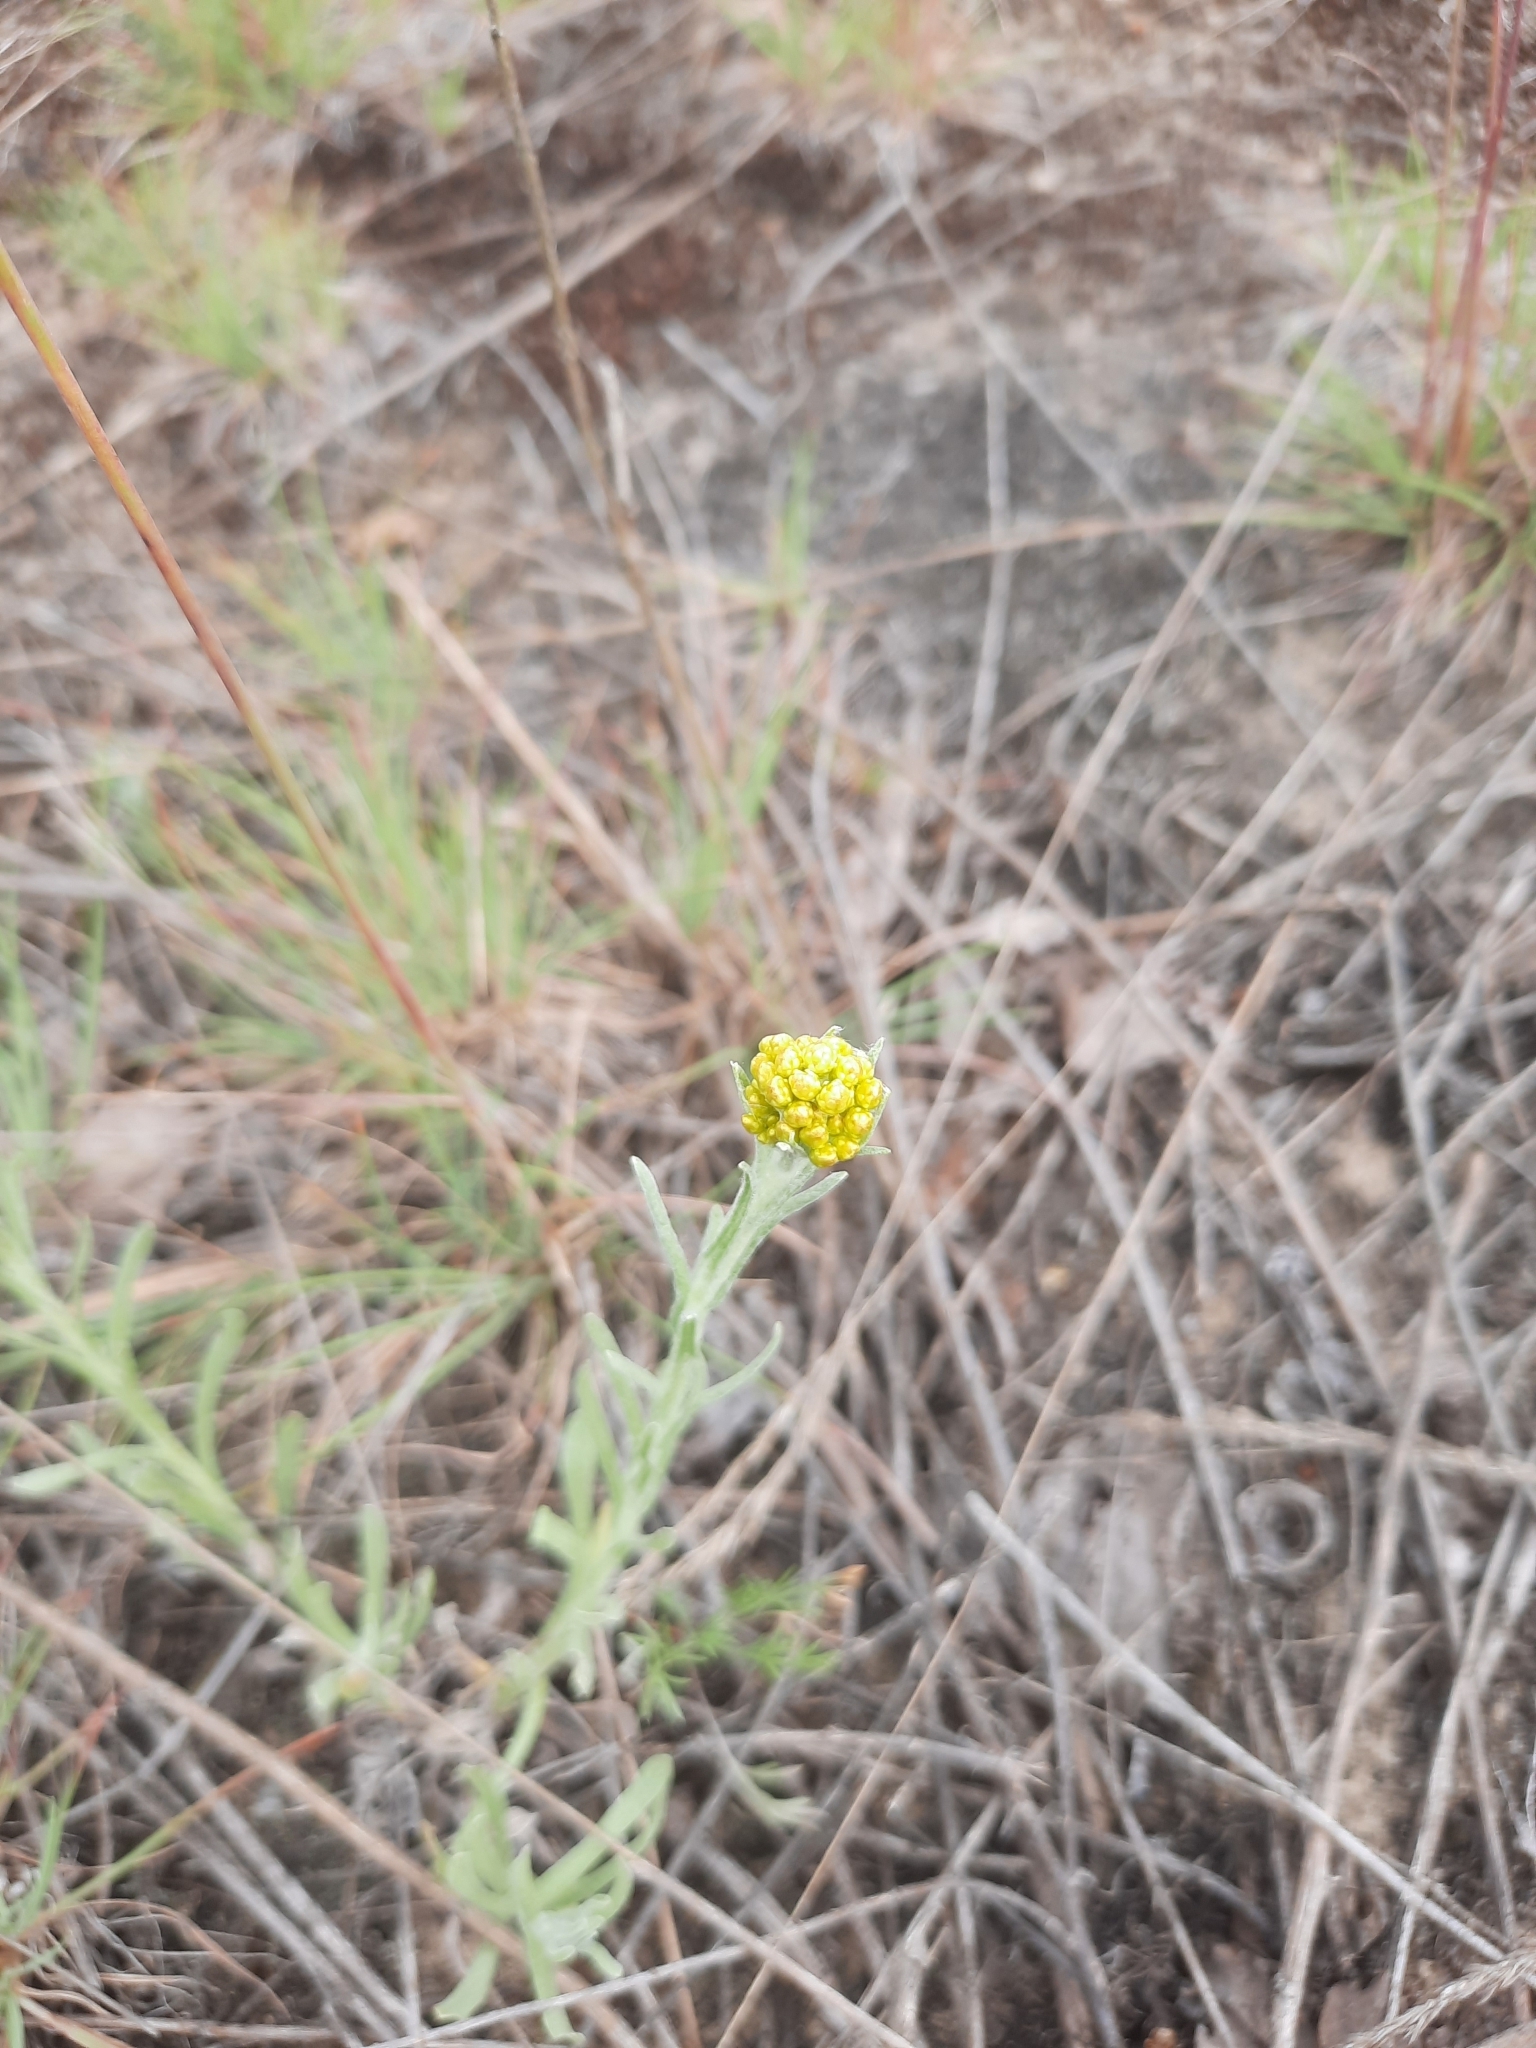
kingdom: Plantae
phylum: Tracheophyta
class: Magnoliopsida
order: Asterales
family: Asteraceae
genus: Helichrysum
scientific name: Helichrysum arenarium
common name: Strawflower
